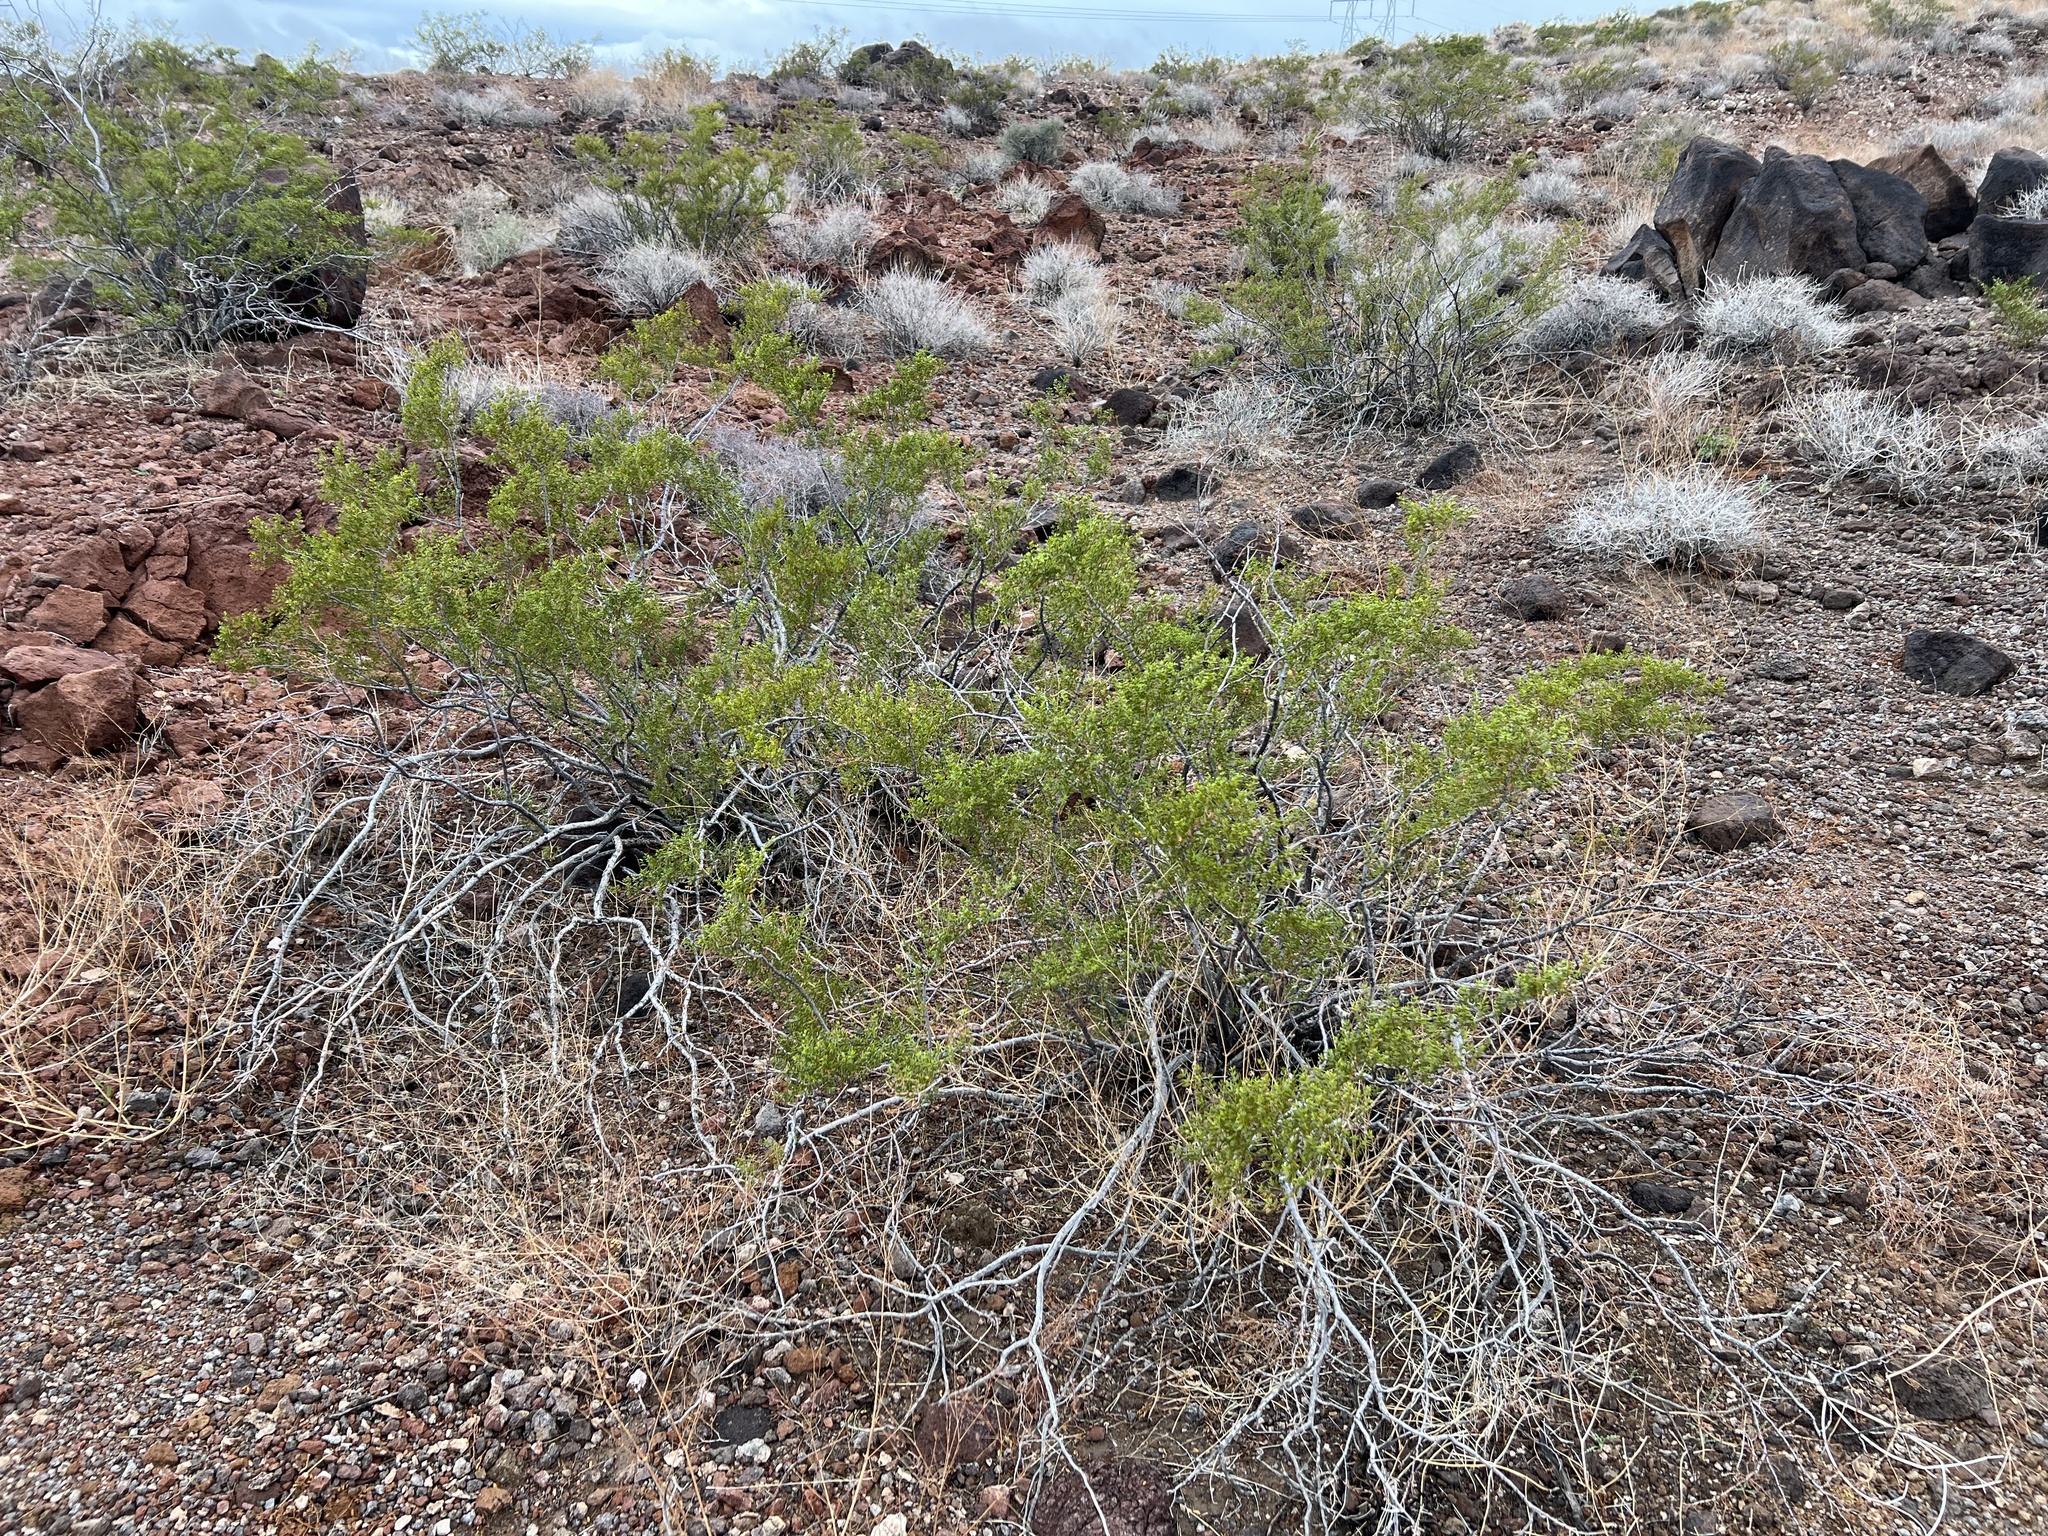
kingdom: Plantae
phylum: Tracheophyta
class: Magnoliopsida
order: Zygophyllales
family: Zygophyllaceae
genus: Larrea
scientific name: Larrea tridentata
